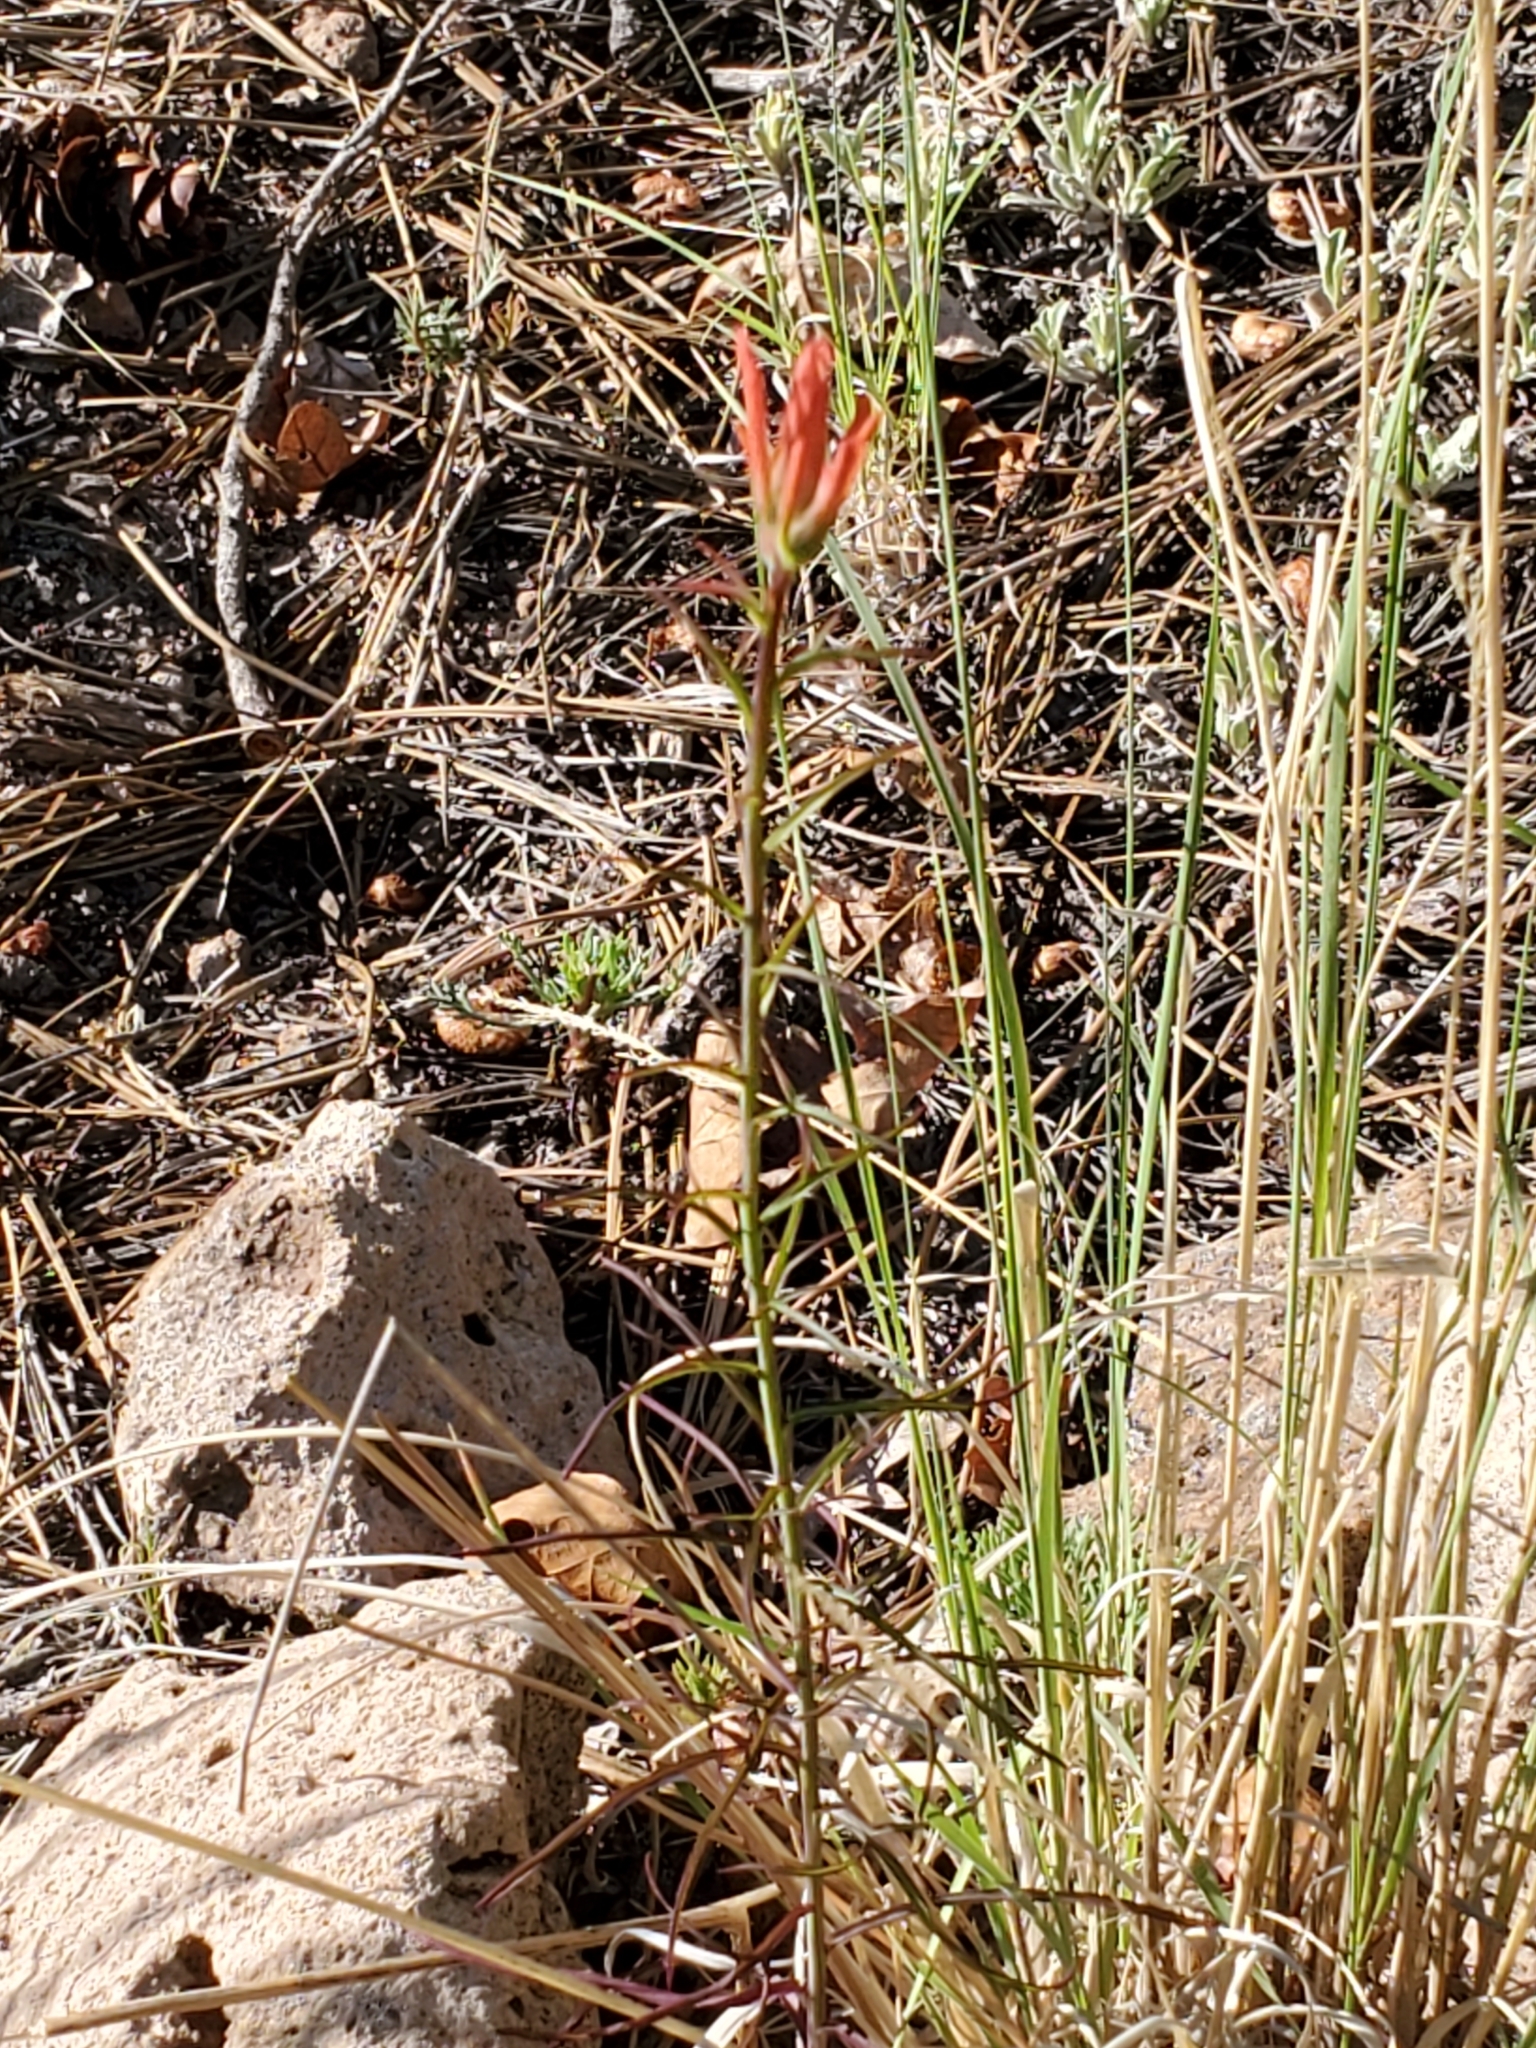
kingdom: Plantae
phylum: Tracheophyta
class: Magnoliopsida
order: Lamiales
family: Orobanchaceae
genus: Castilleja
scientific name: Castilleja linariifolia
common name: Wyoming paintbrush
